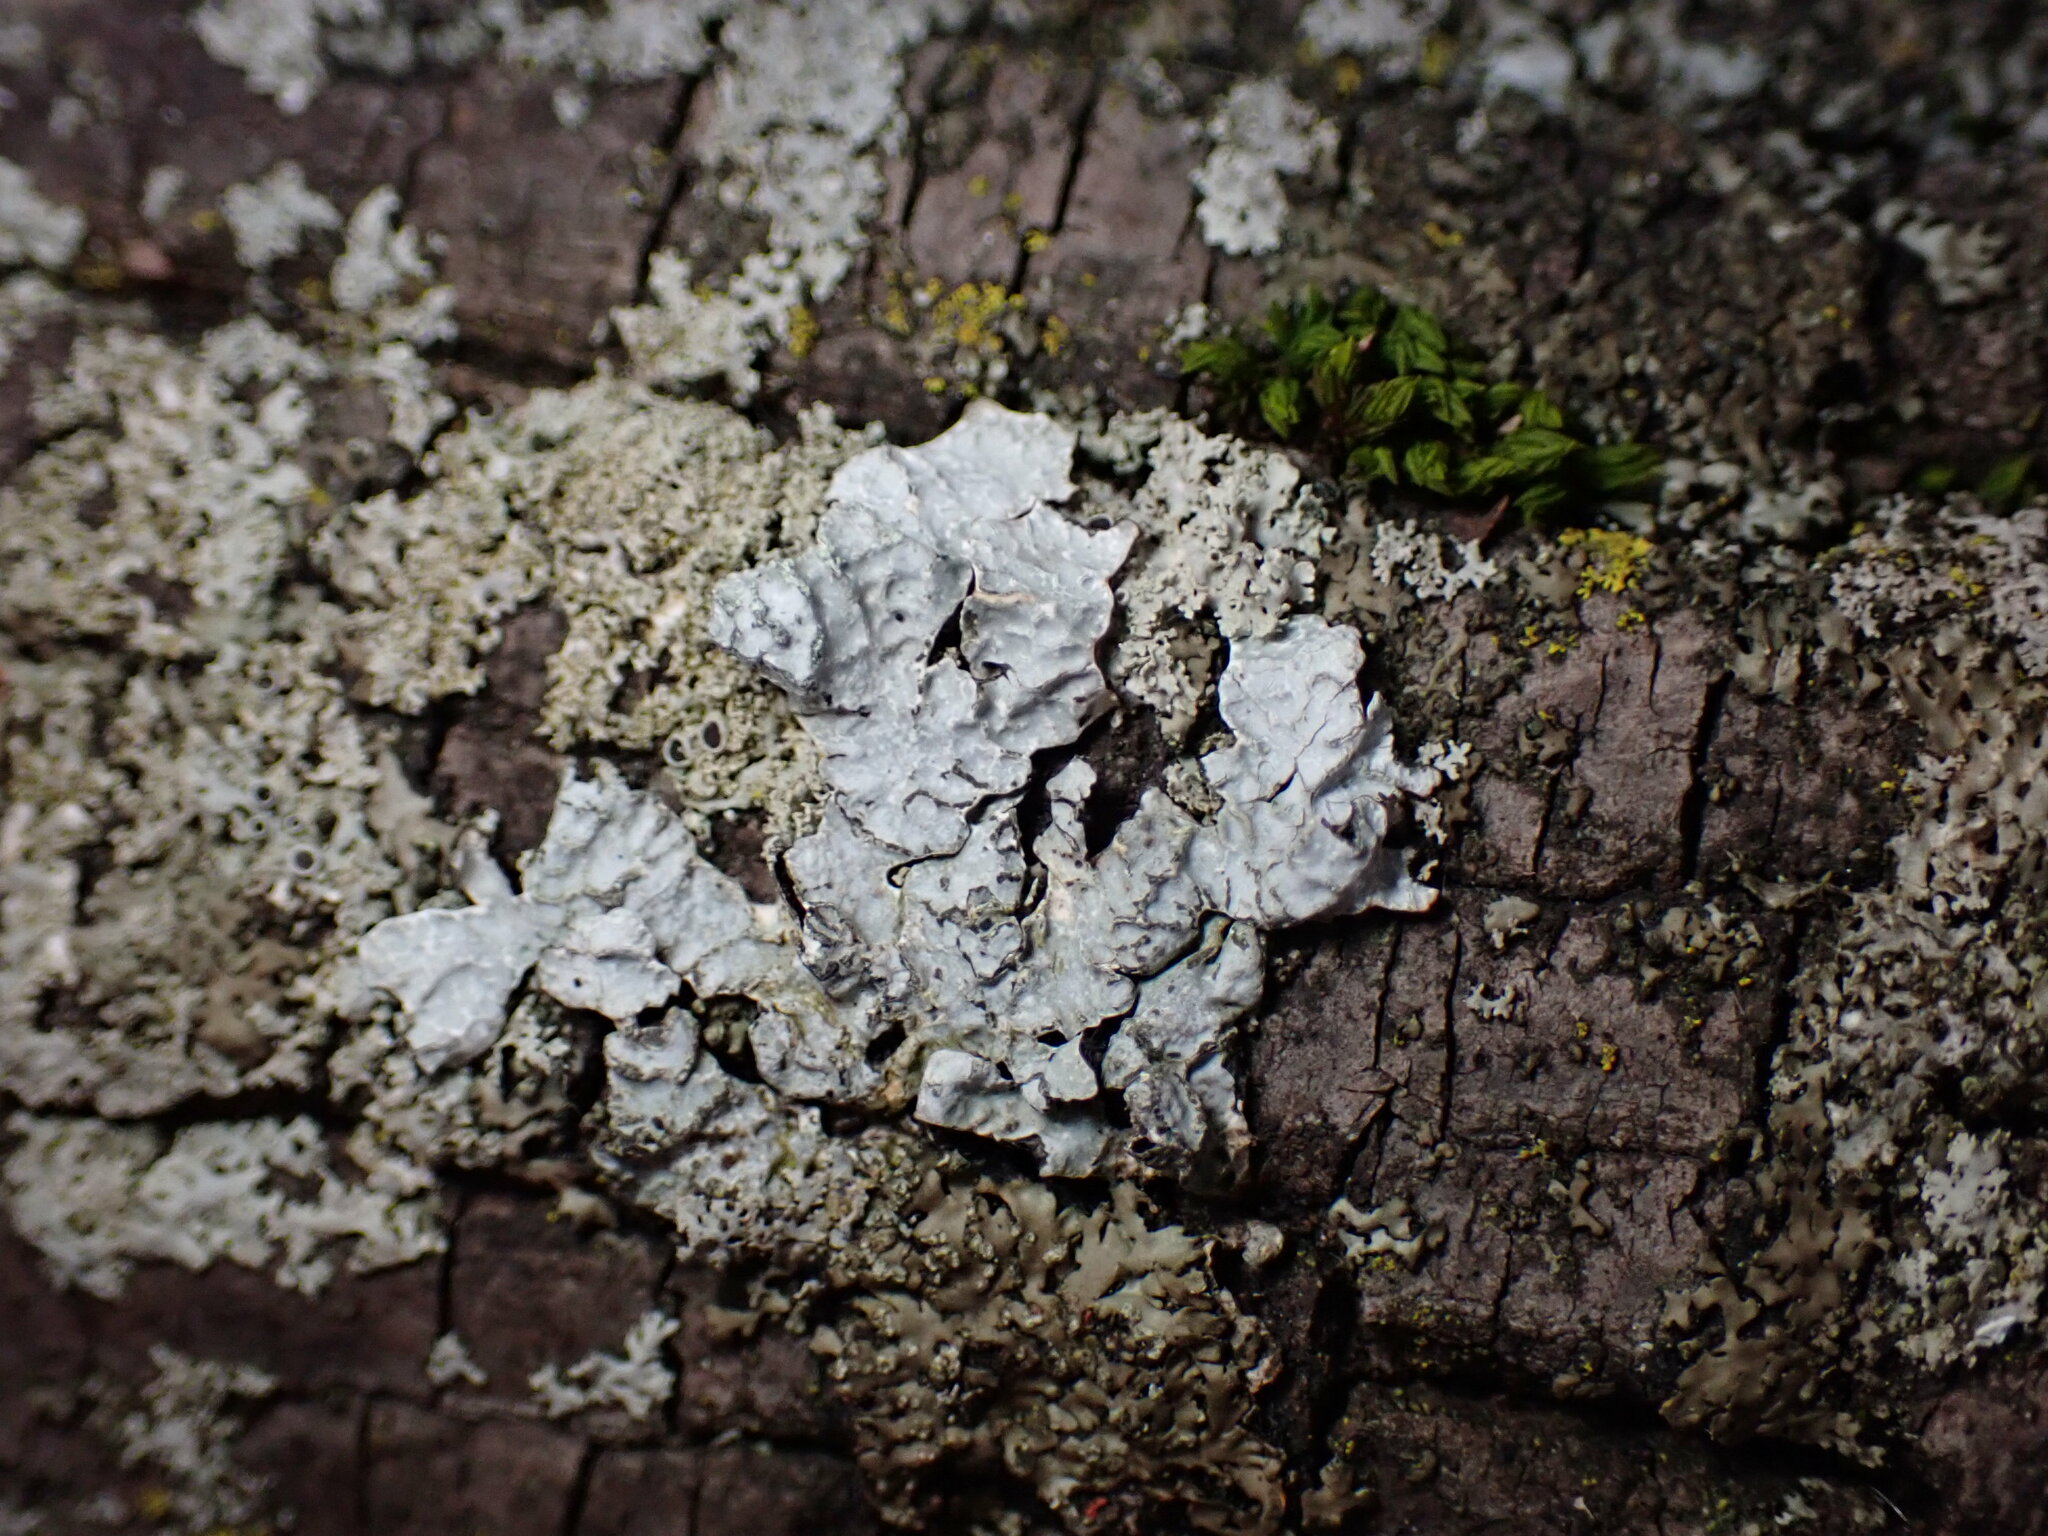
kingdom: Fungi
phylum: Ascomycota
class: Lecanoromycetes
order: Lecanorales
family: Parmeliaceae
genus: Parmelia
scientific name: Parmelia sulcata
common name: Netted shield lichen
